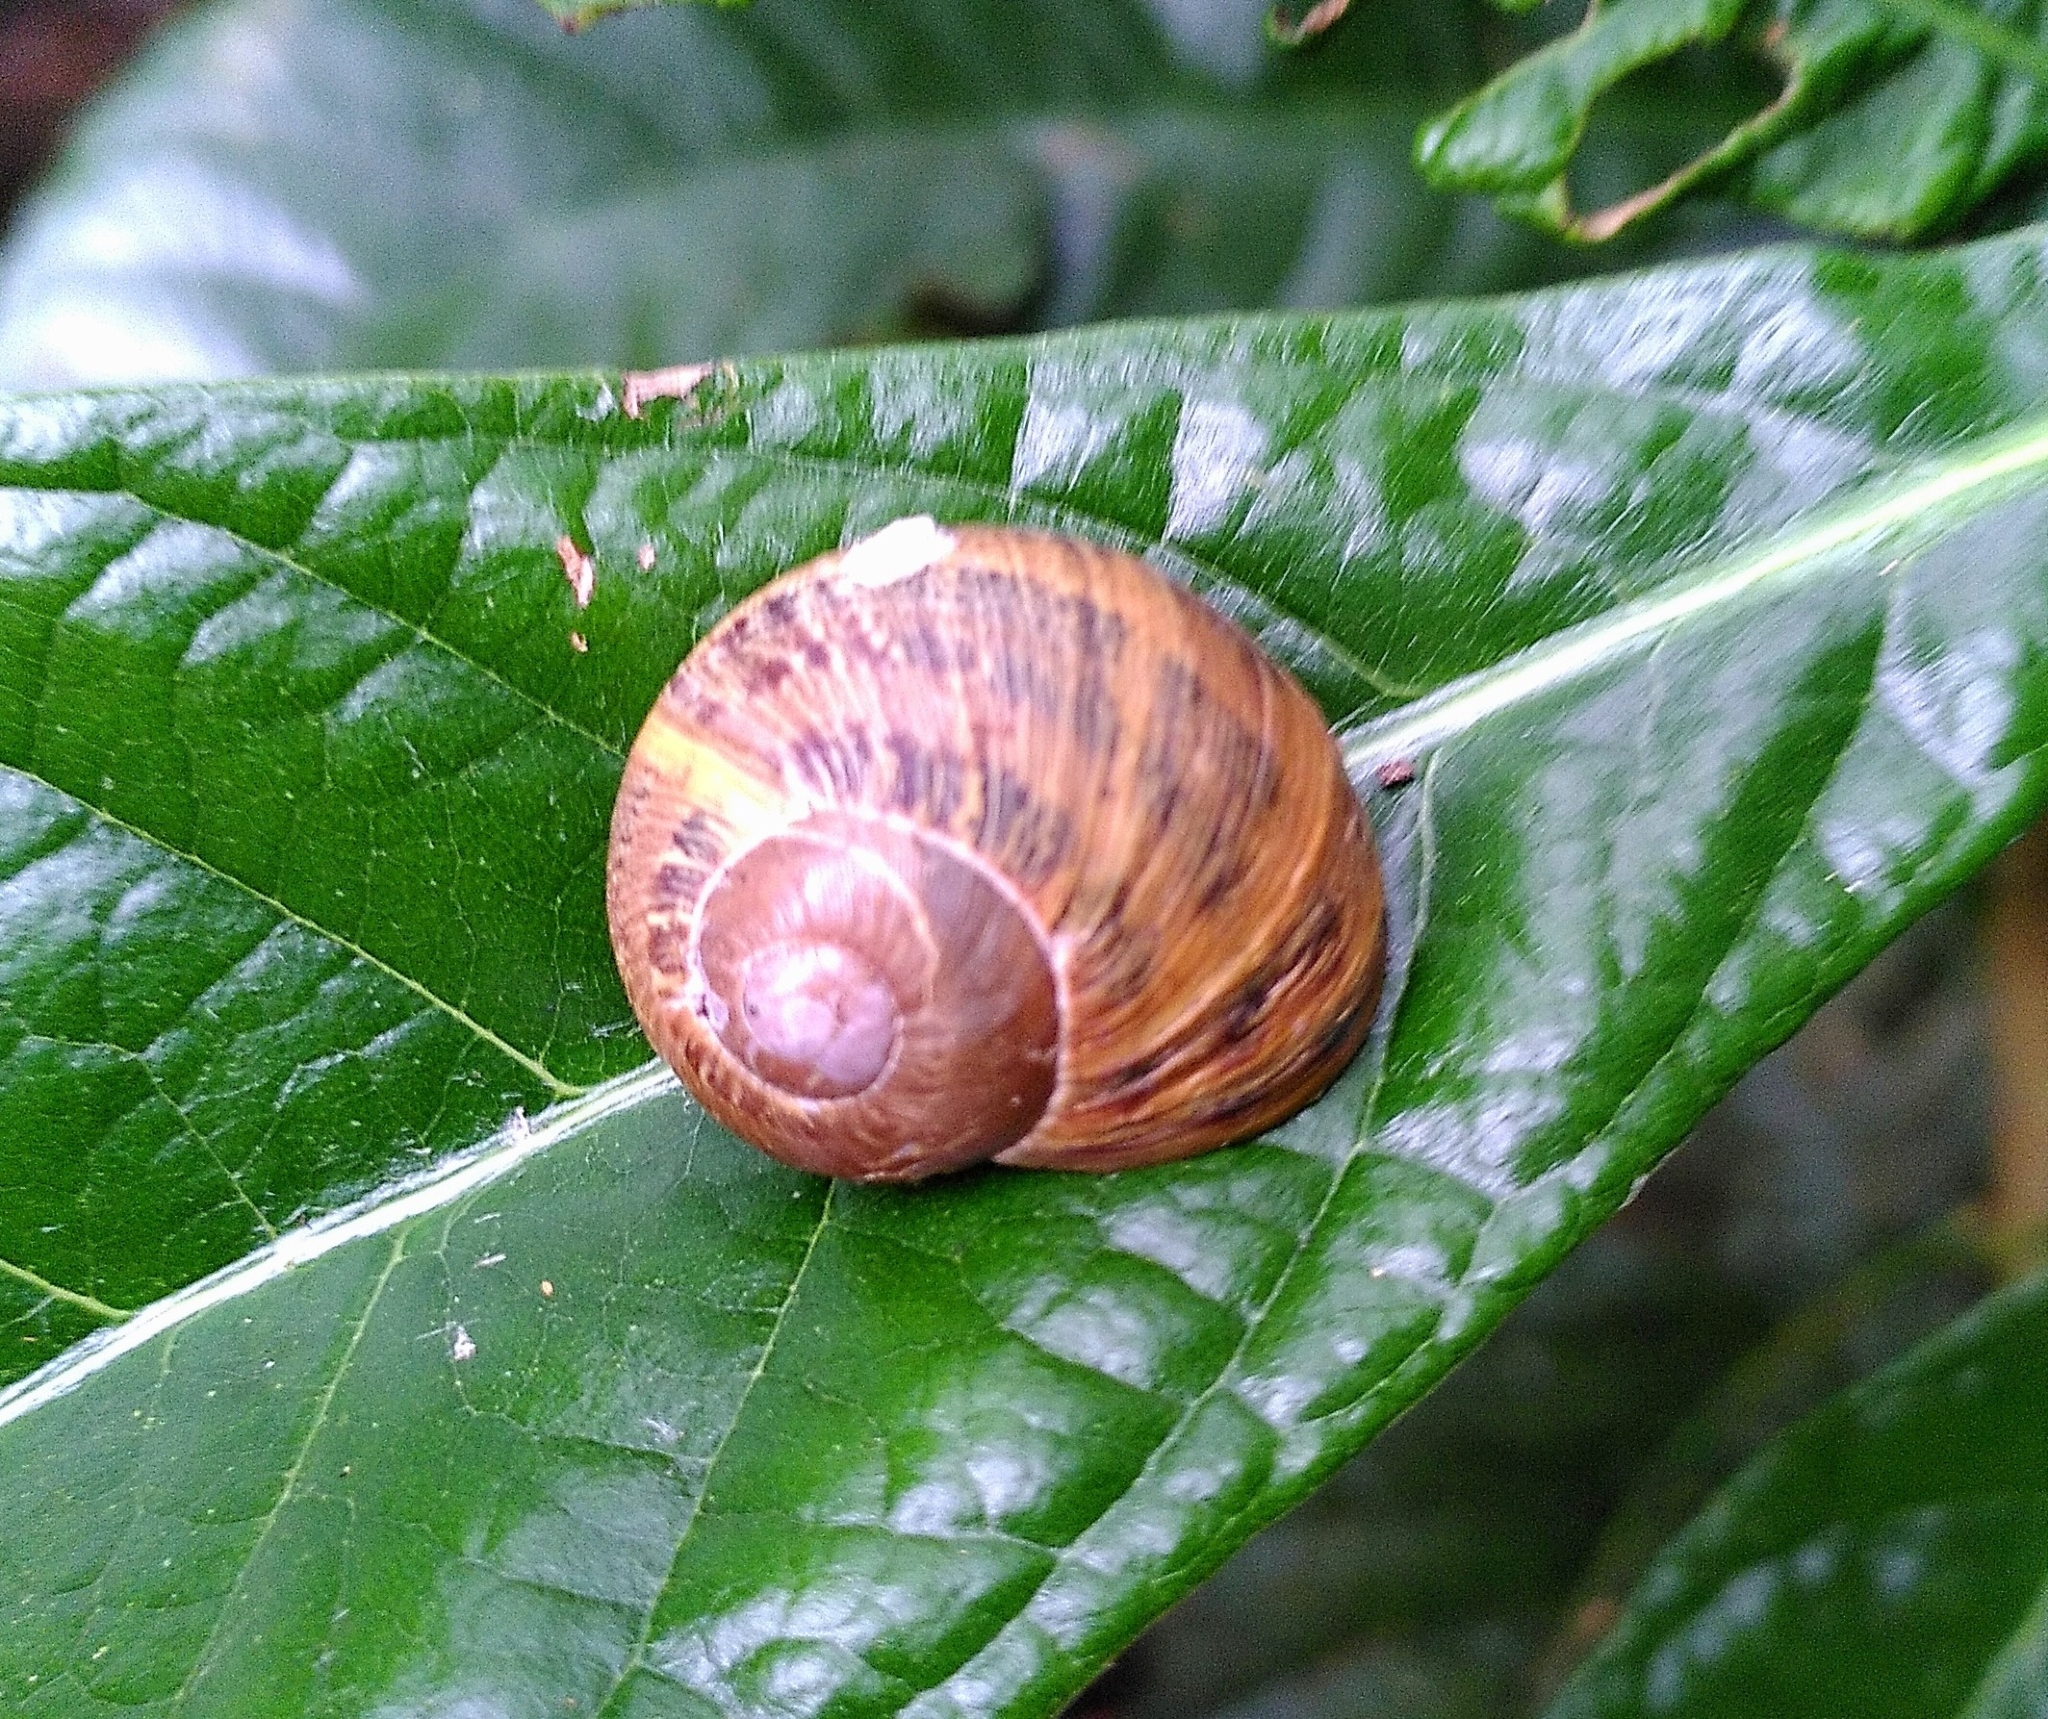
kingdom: Animalia
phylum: Mollusca
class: Gastropoda
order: Stylommatophora
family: Helicidae
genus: Cornu
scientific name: Cornu aspersum
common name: Brown garden snail
